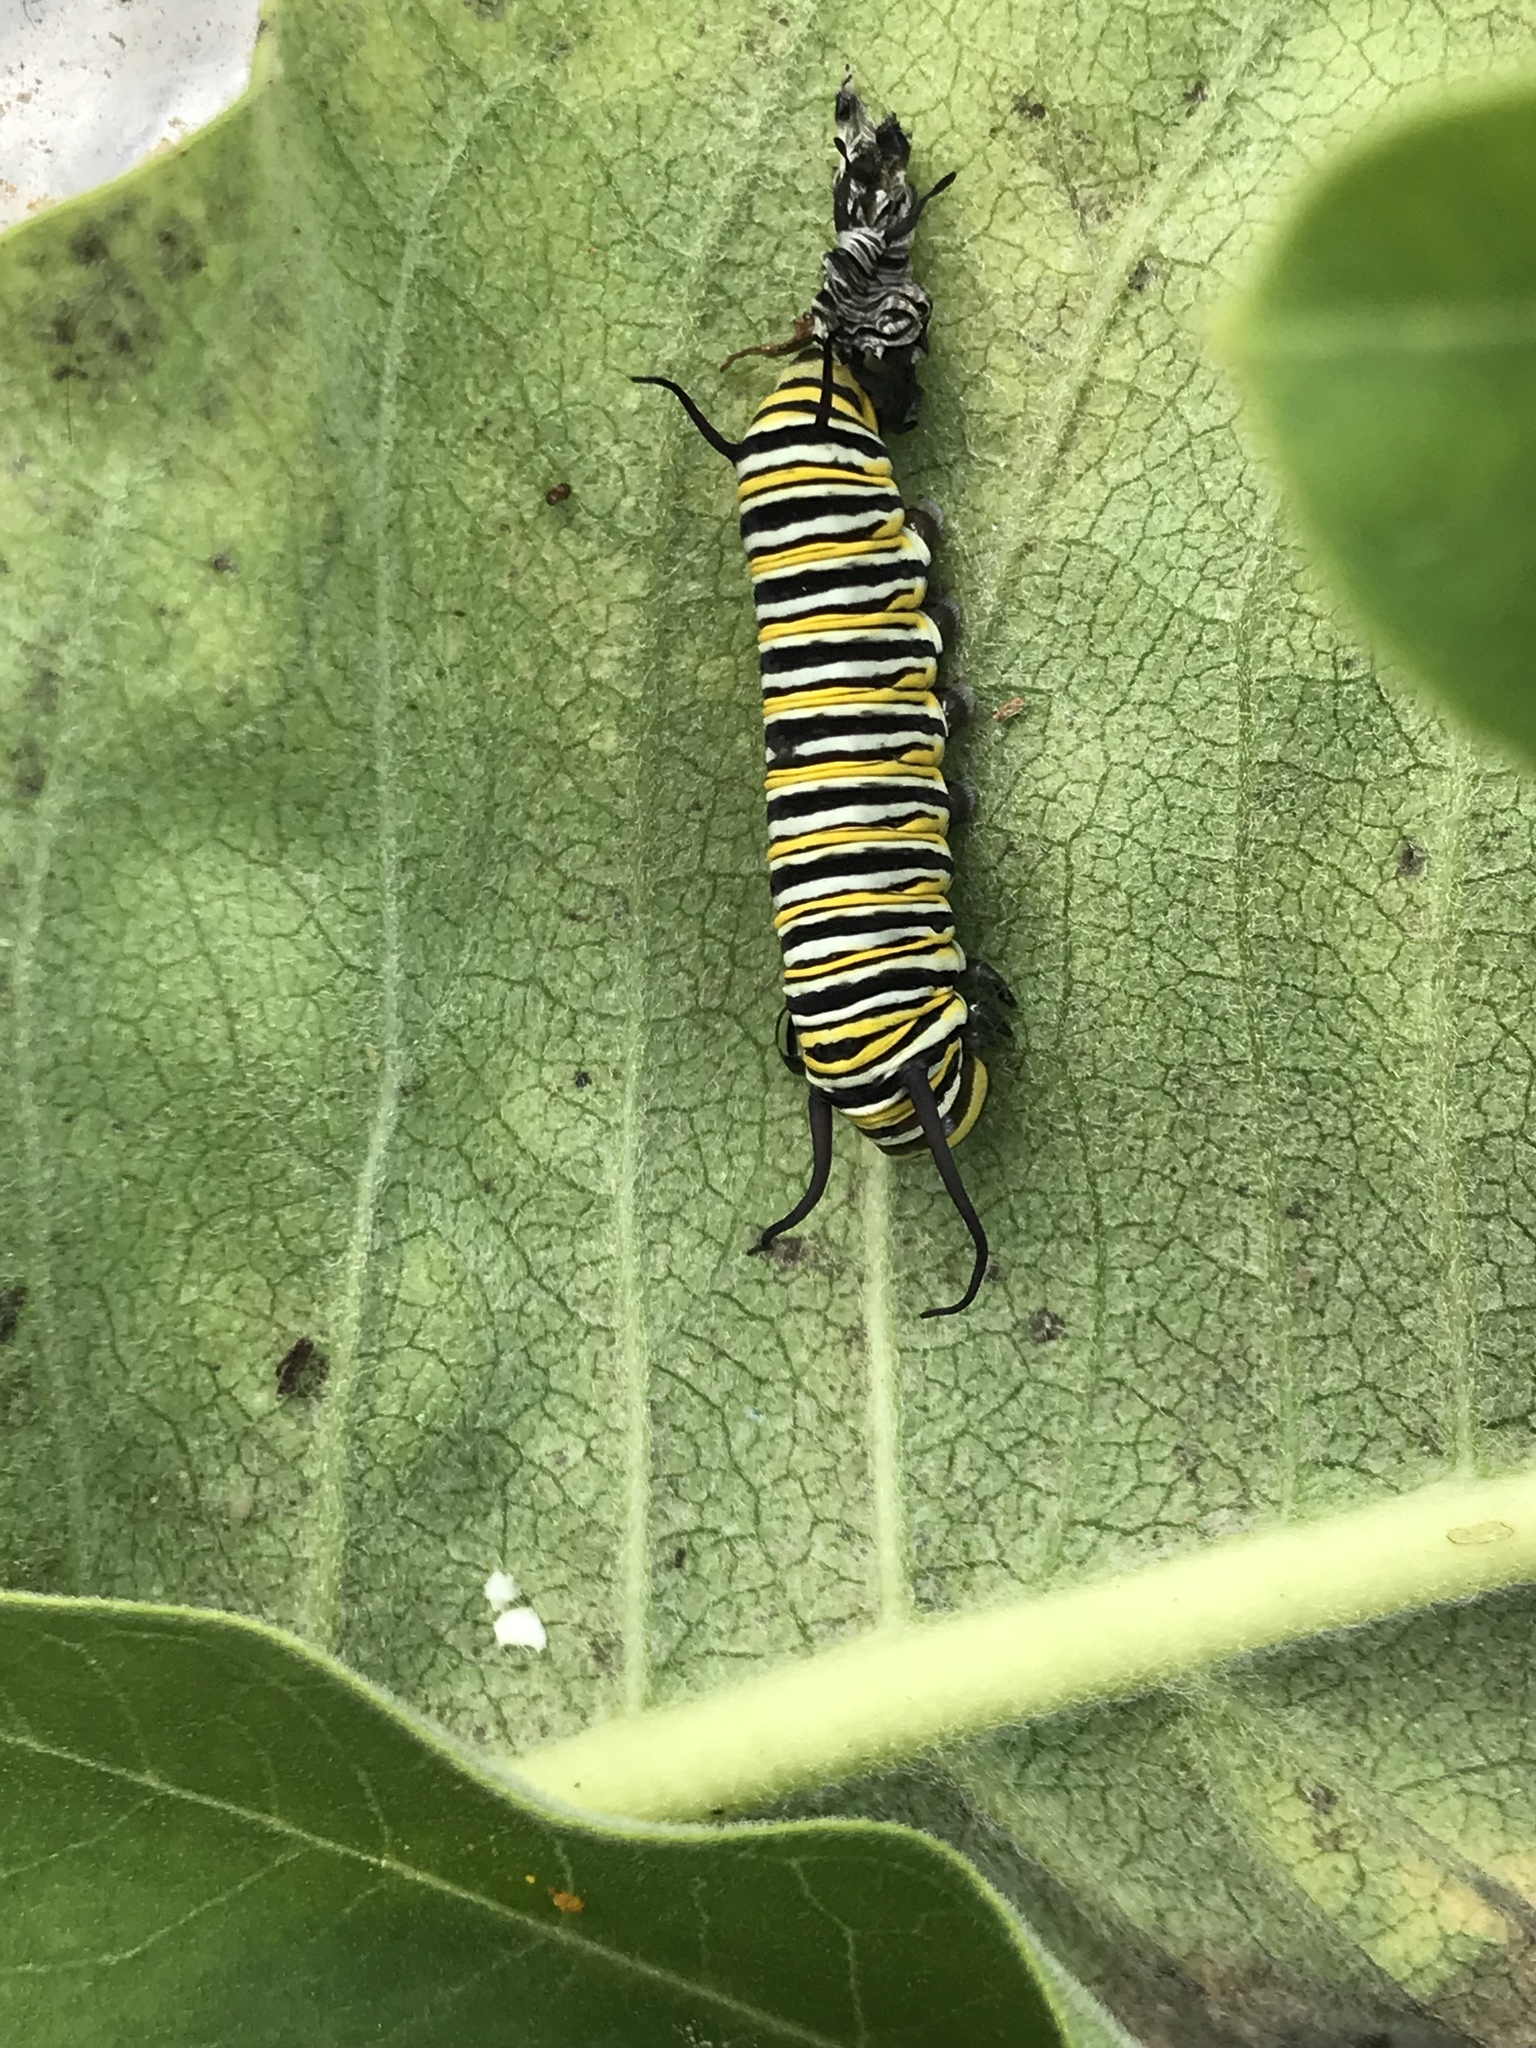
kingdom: Animalia
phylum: Arthropoda
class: Insecta
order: Lepidoptera
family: Nymphalidae
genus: Danaus
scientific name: Danaus plexippus
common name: Monarch
